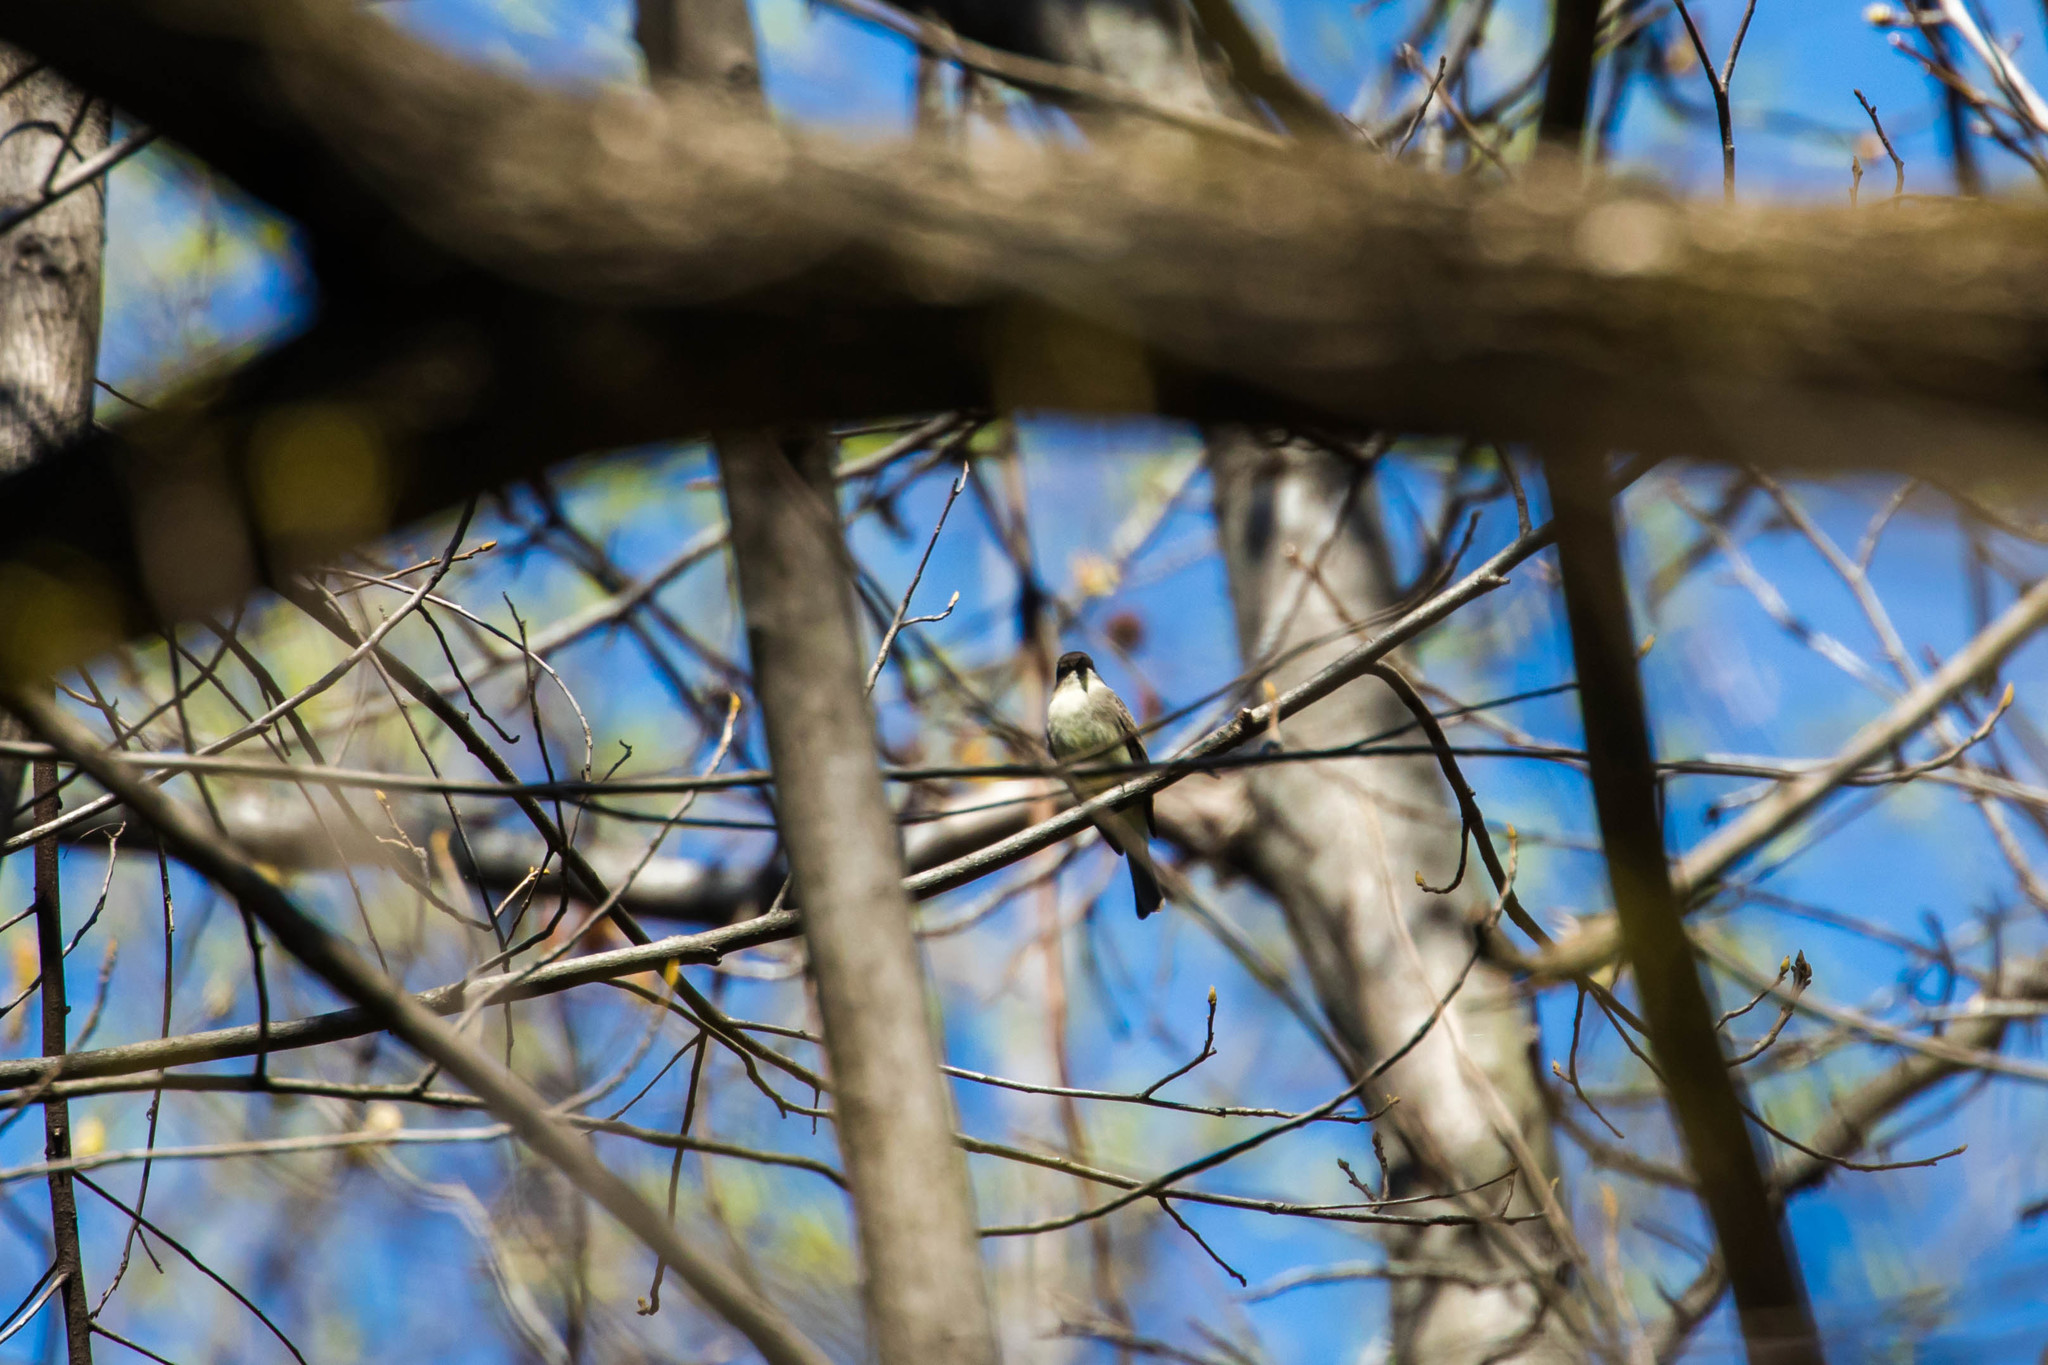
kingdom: Animalia
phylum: Chordata
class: Aves
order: Passeriformes
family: Tyrannidae
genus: Sayornis
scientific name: Sayornis phoebe
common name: Eastern phoebe
